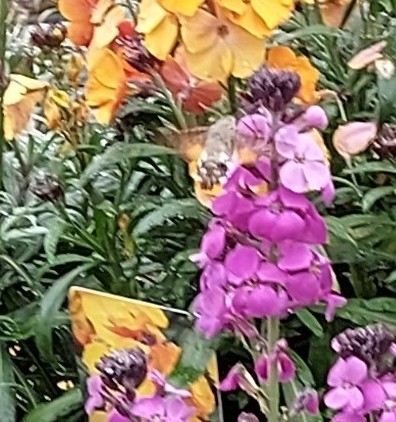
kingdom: Animalia
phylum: Arthropoda
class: Insecta
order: Lepidoptera
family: Sphingidae
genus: Macroglossum
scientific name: Macroglossum stellatarum
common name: Humming-bird hawk-moth
